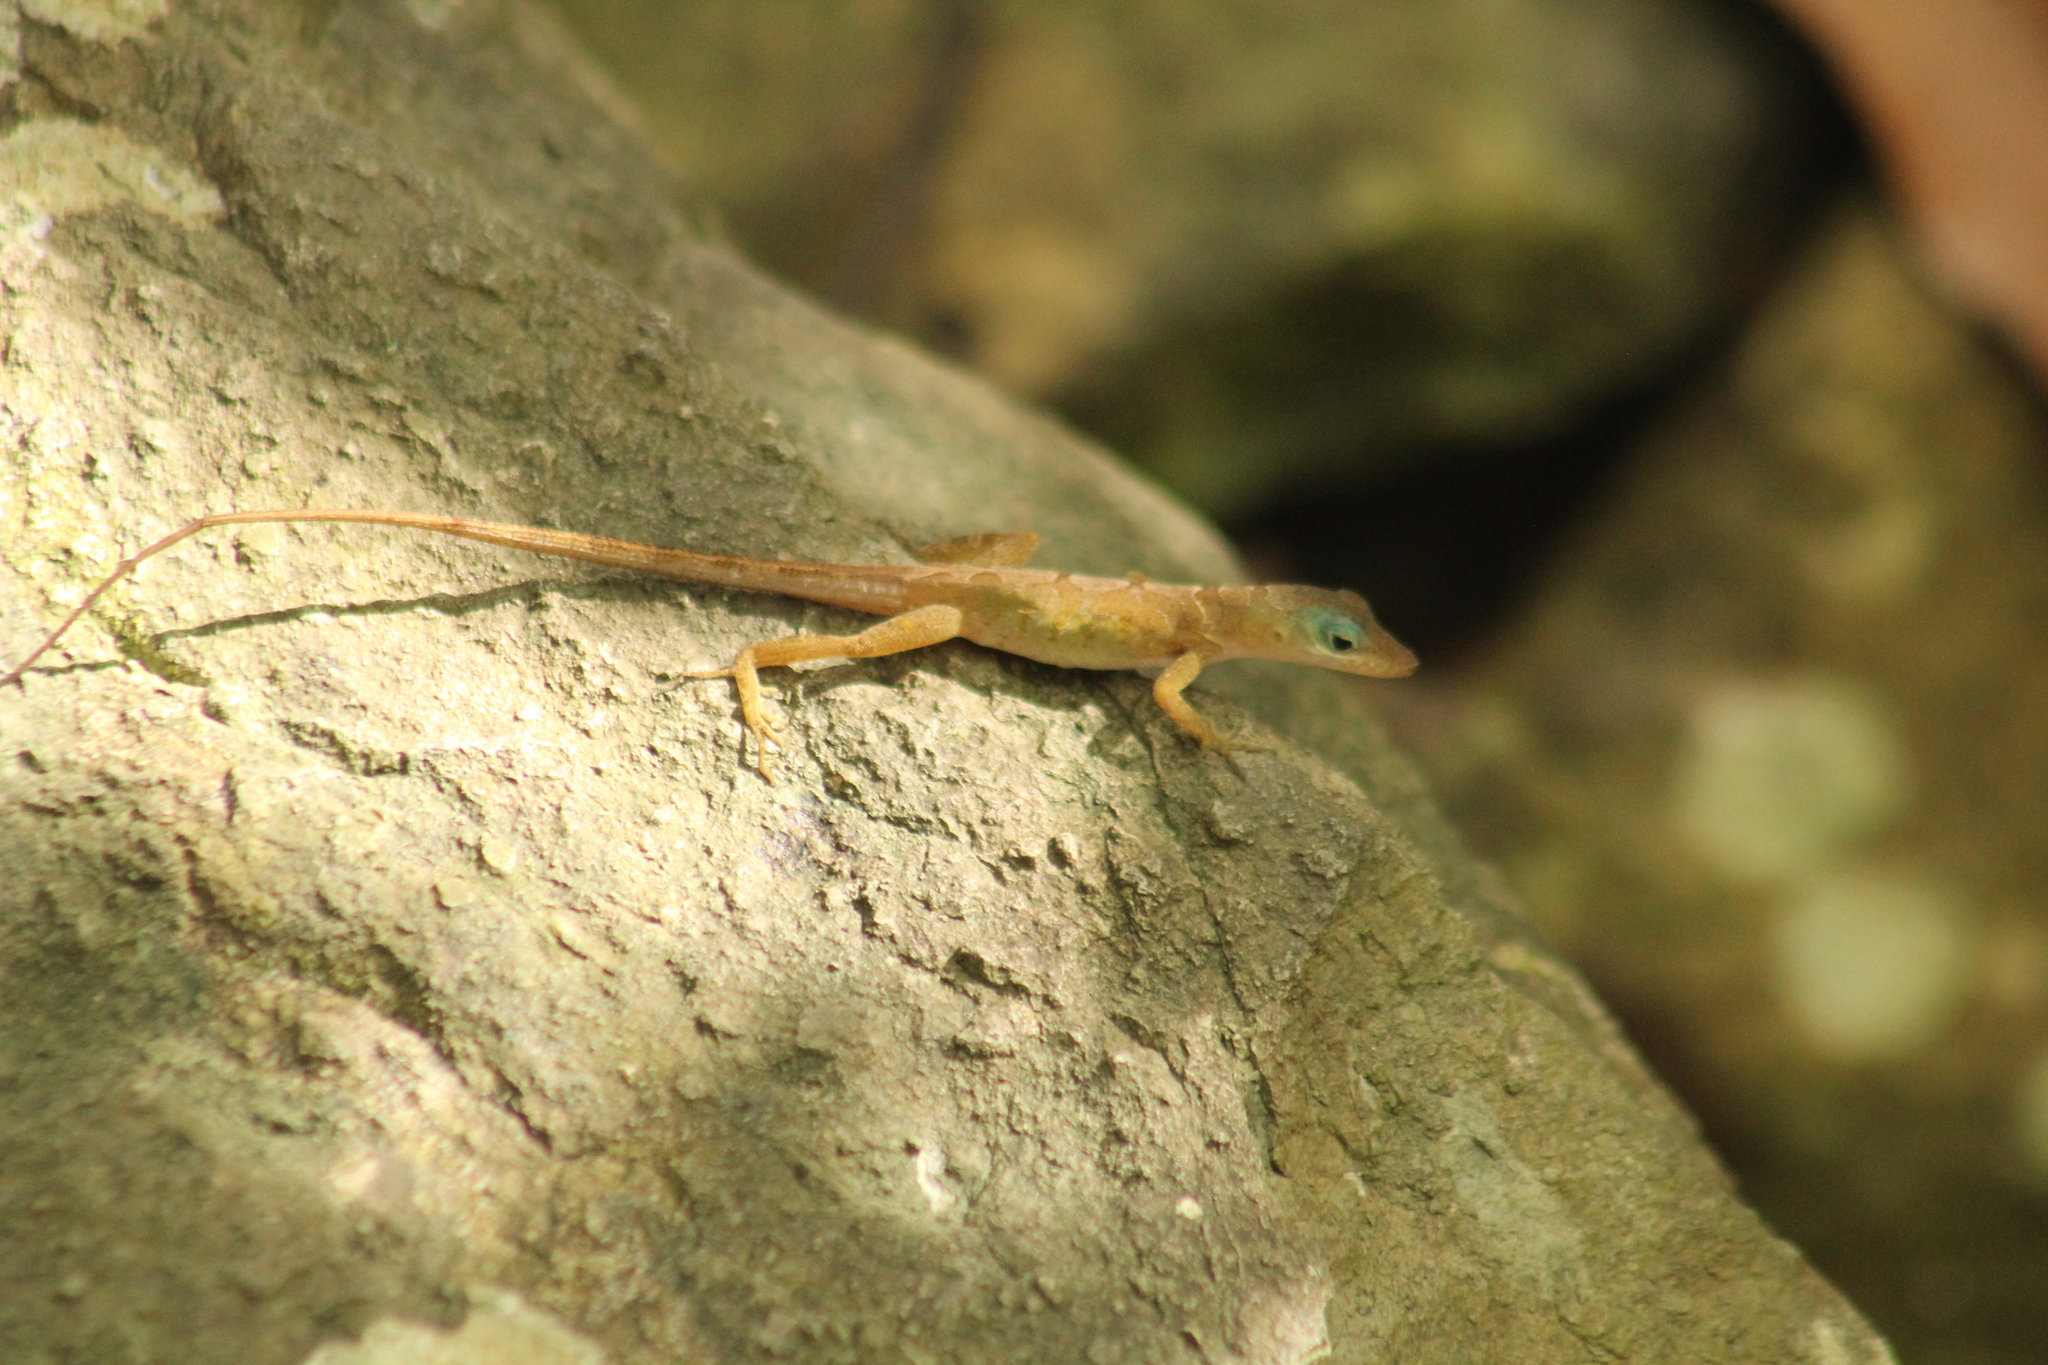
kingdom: Animalia
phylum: Chordata
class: Squamata
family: Dactyloidae
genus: Anolis
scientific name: Anolis pogus
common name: Anguilla bank bush anole
